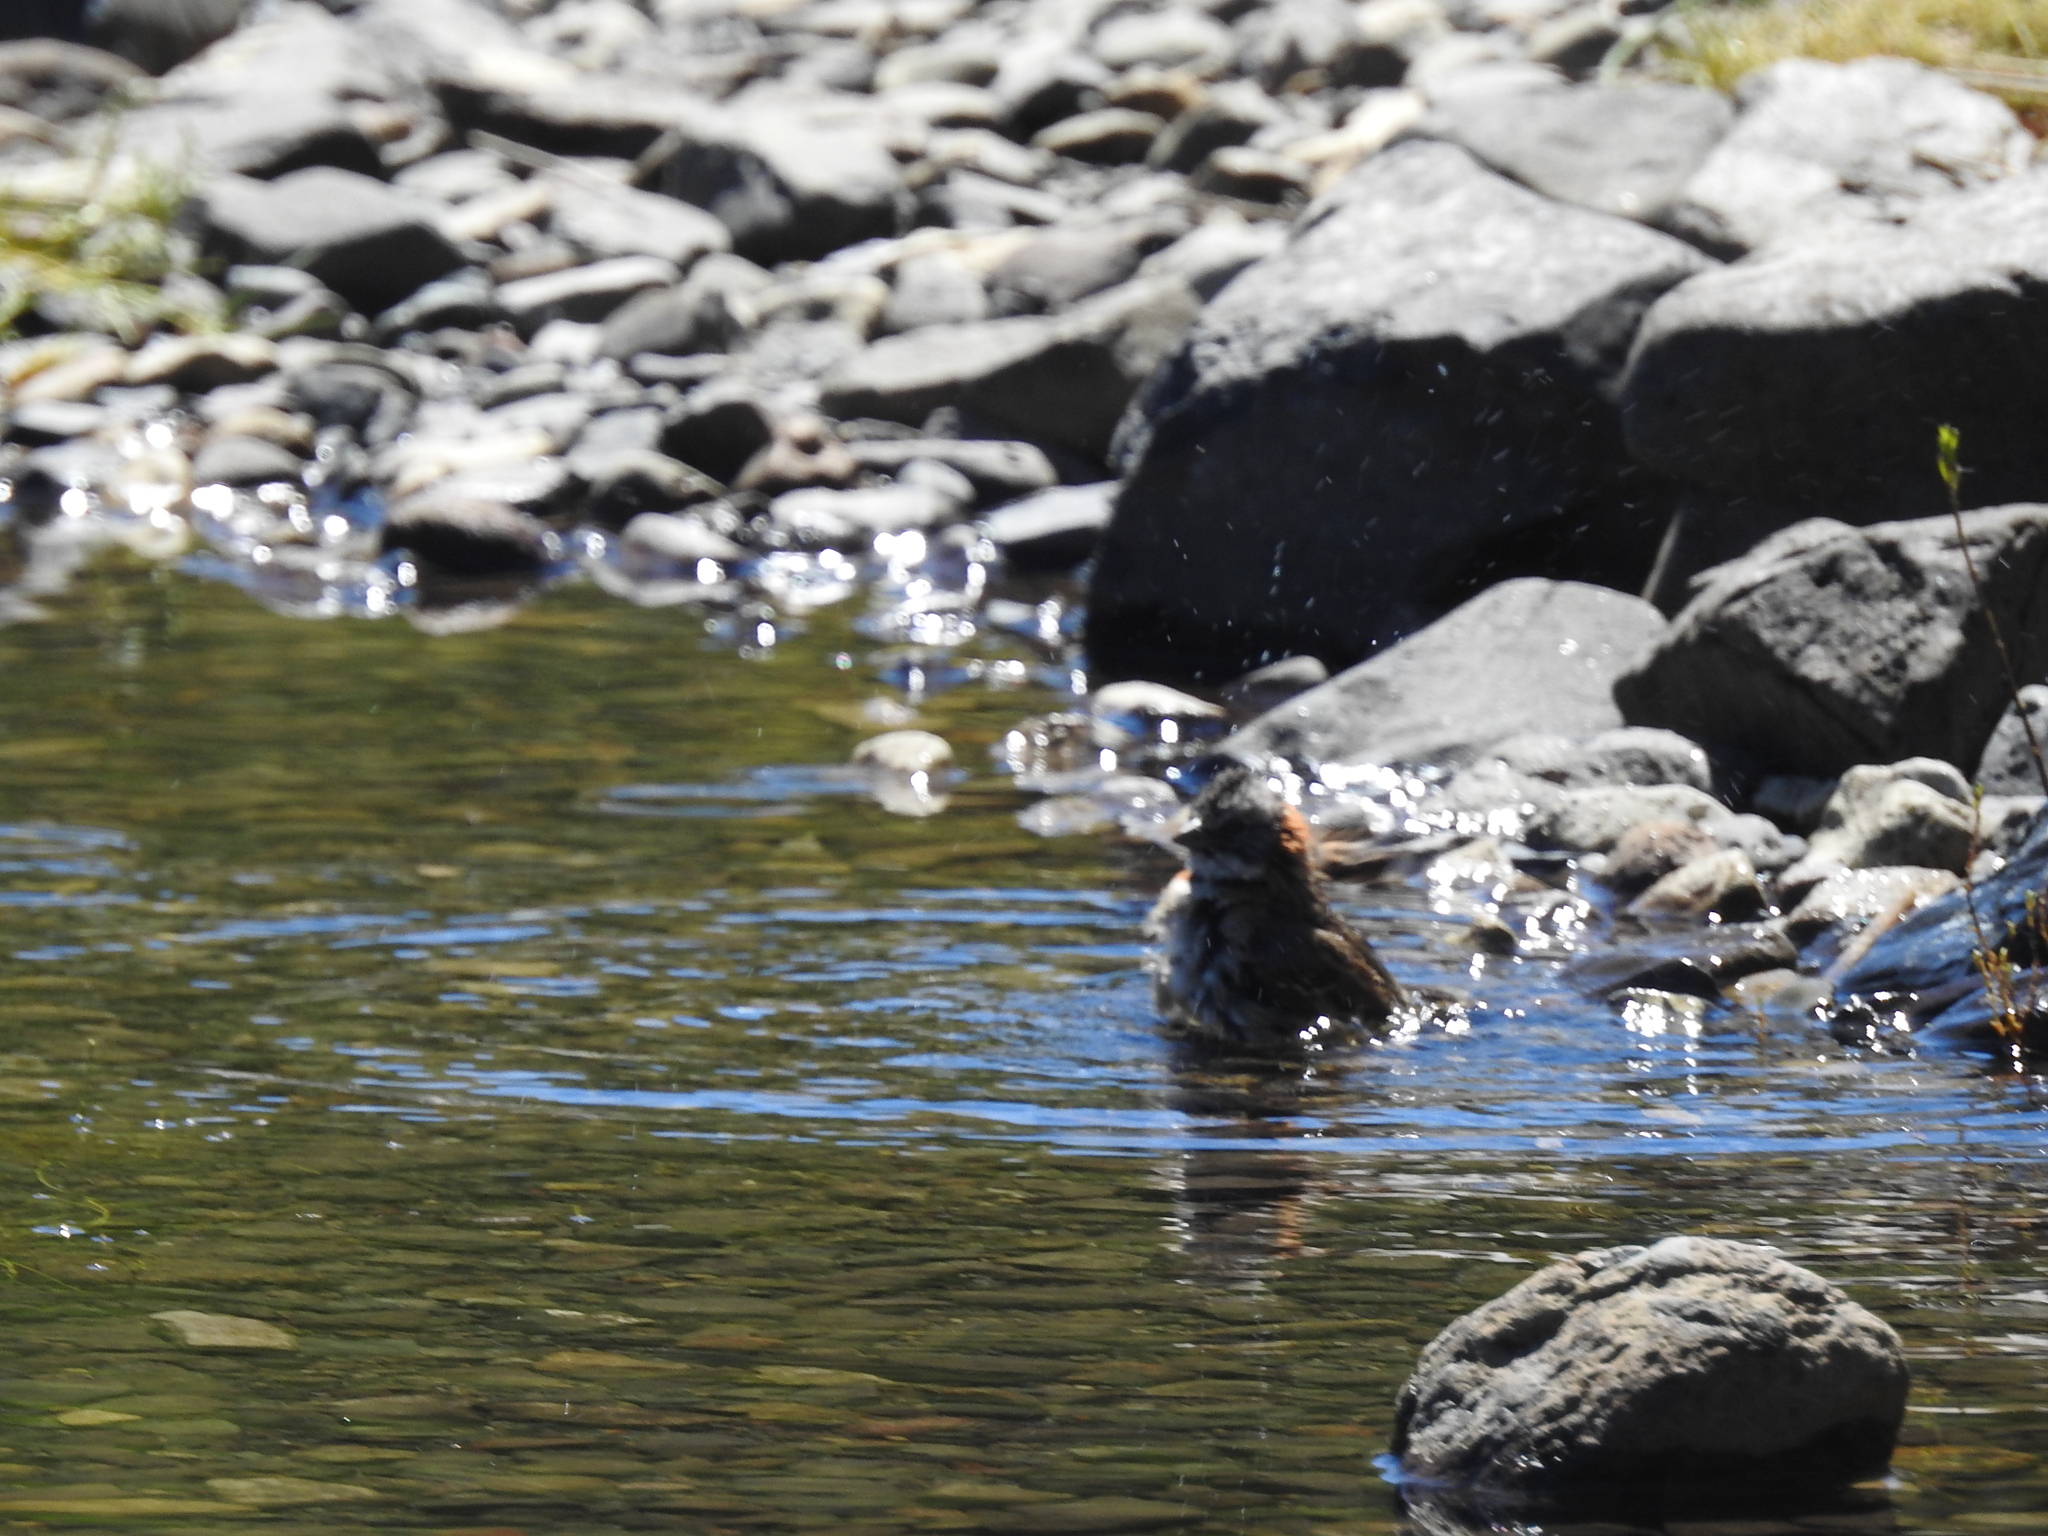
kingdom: Animalia
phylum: Chordata
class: Aves
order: Passeriformes
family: Passerellidae
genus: Zonotrichia
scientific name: Zonotrichia capensis
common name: Rufous-collared sparrow
